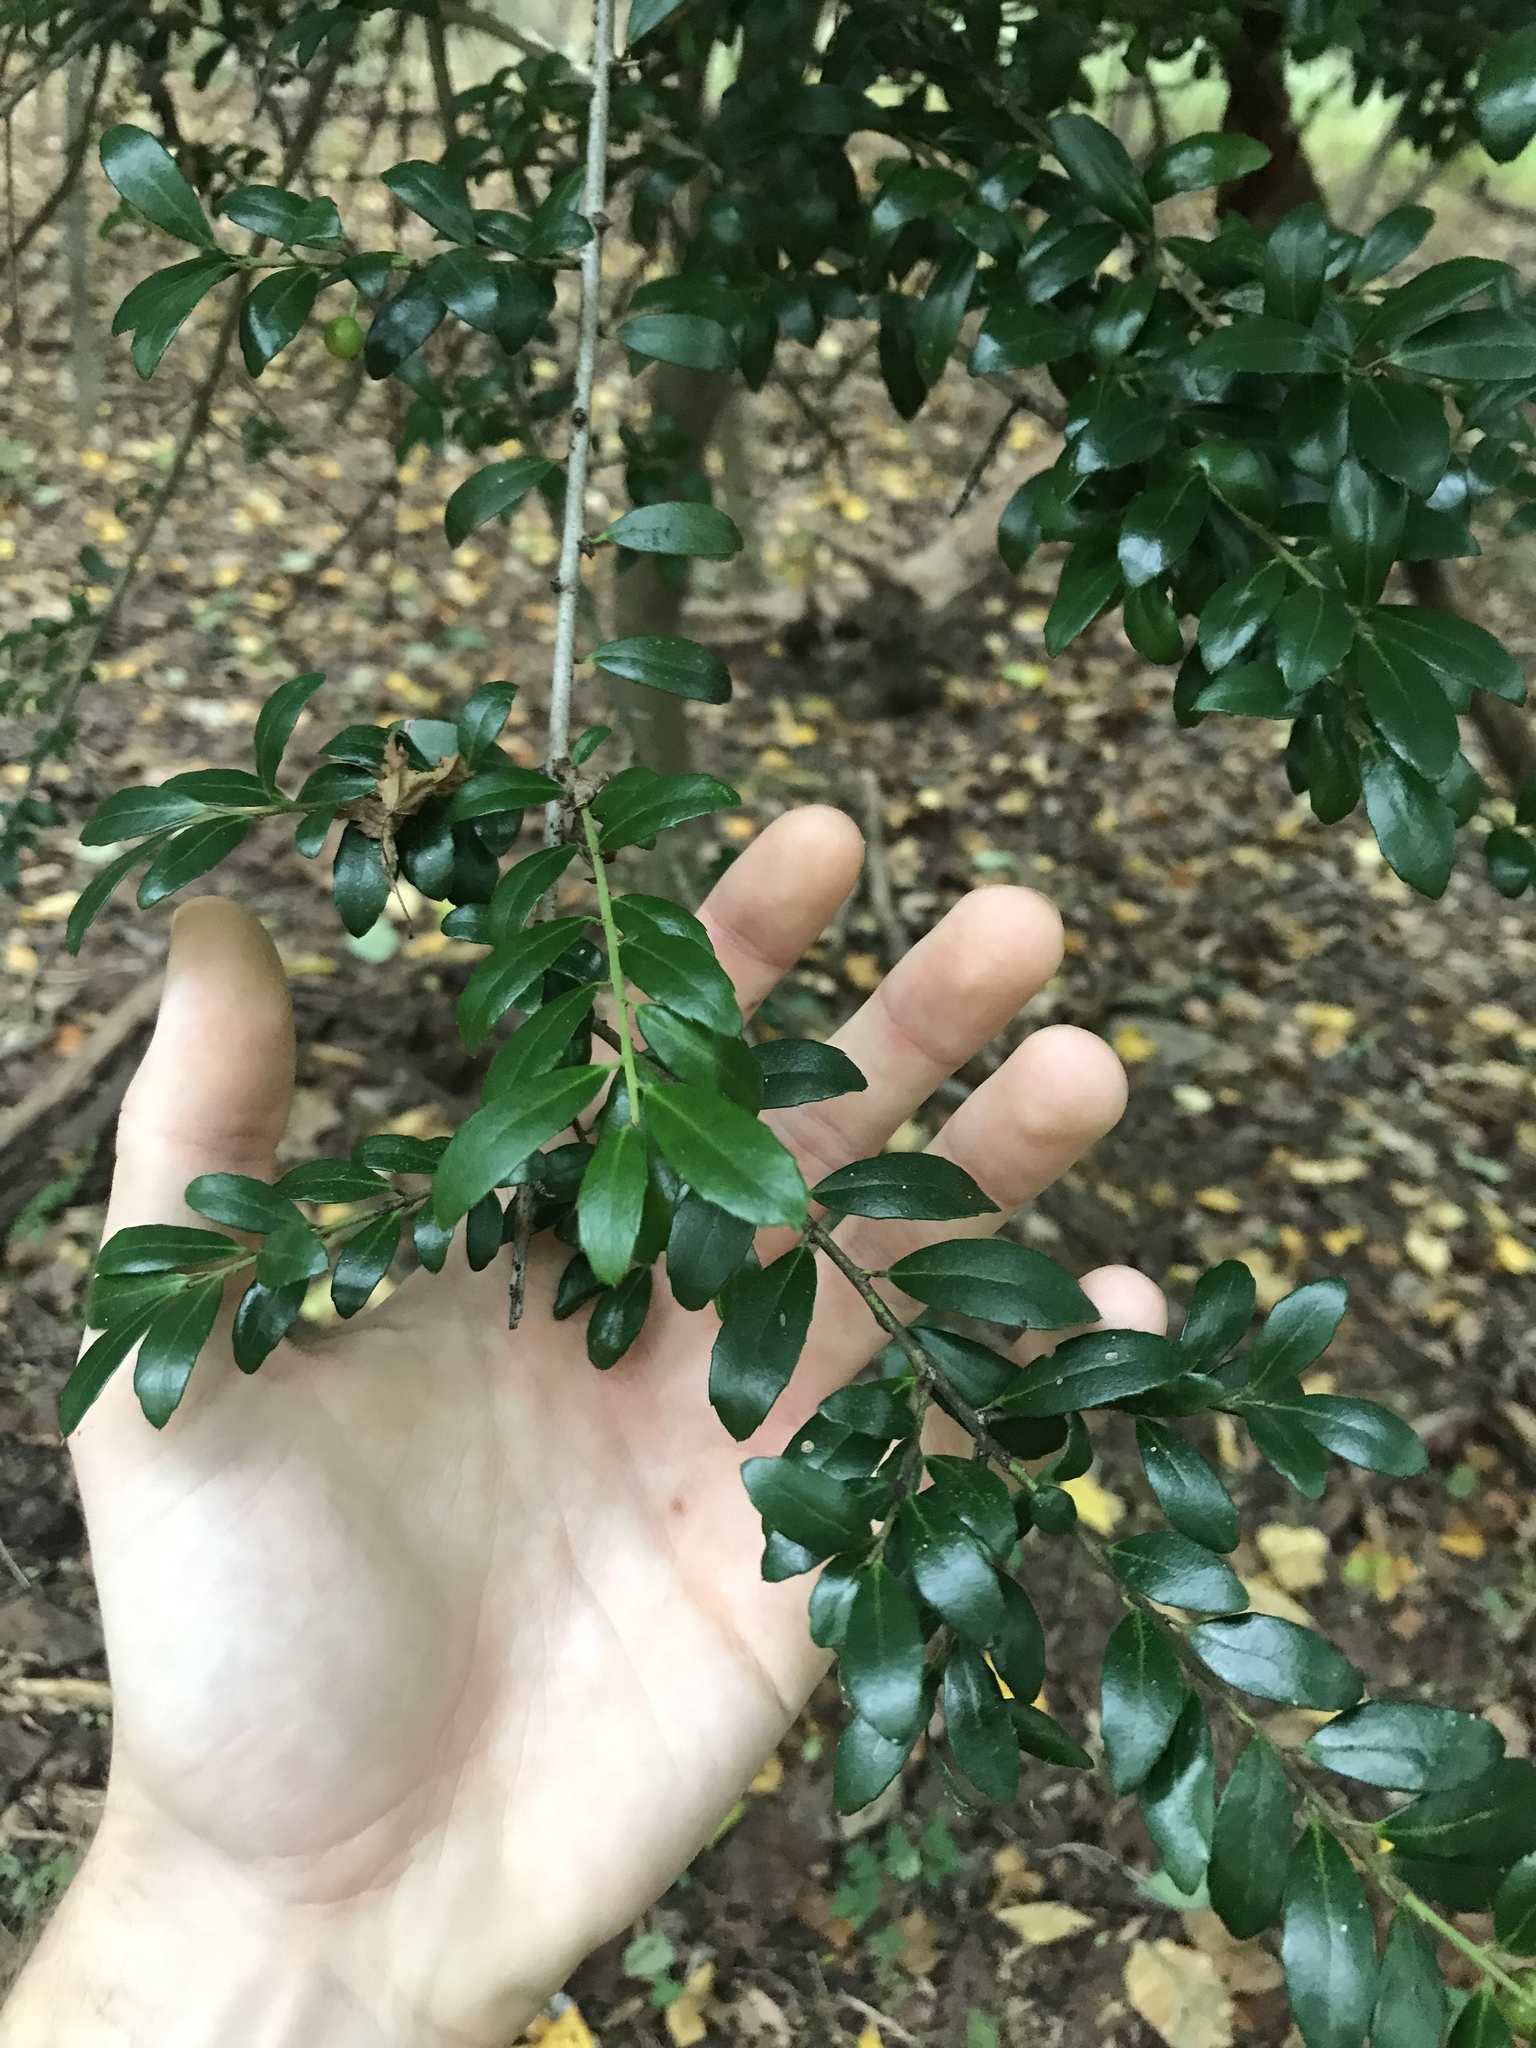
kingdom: Plantae
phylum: Tracheophyta
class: Magnoliopsida
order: Aquifoliales
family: Aquifoliaceae
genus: Ilex
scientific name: Ilex crenata
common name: Japanese holly
